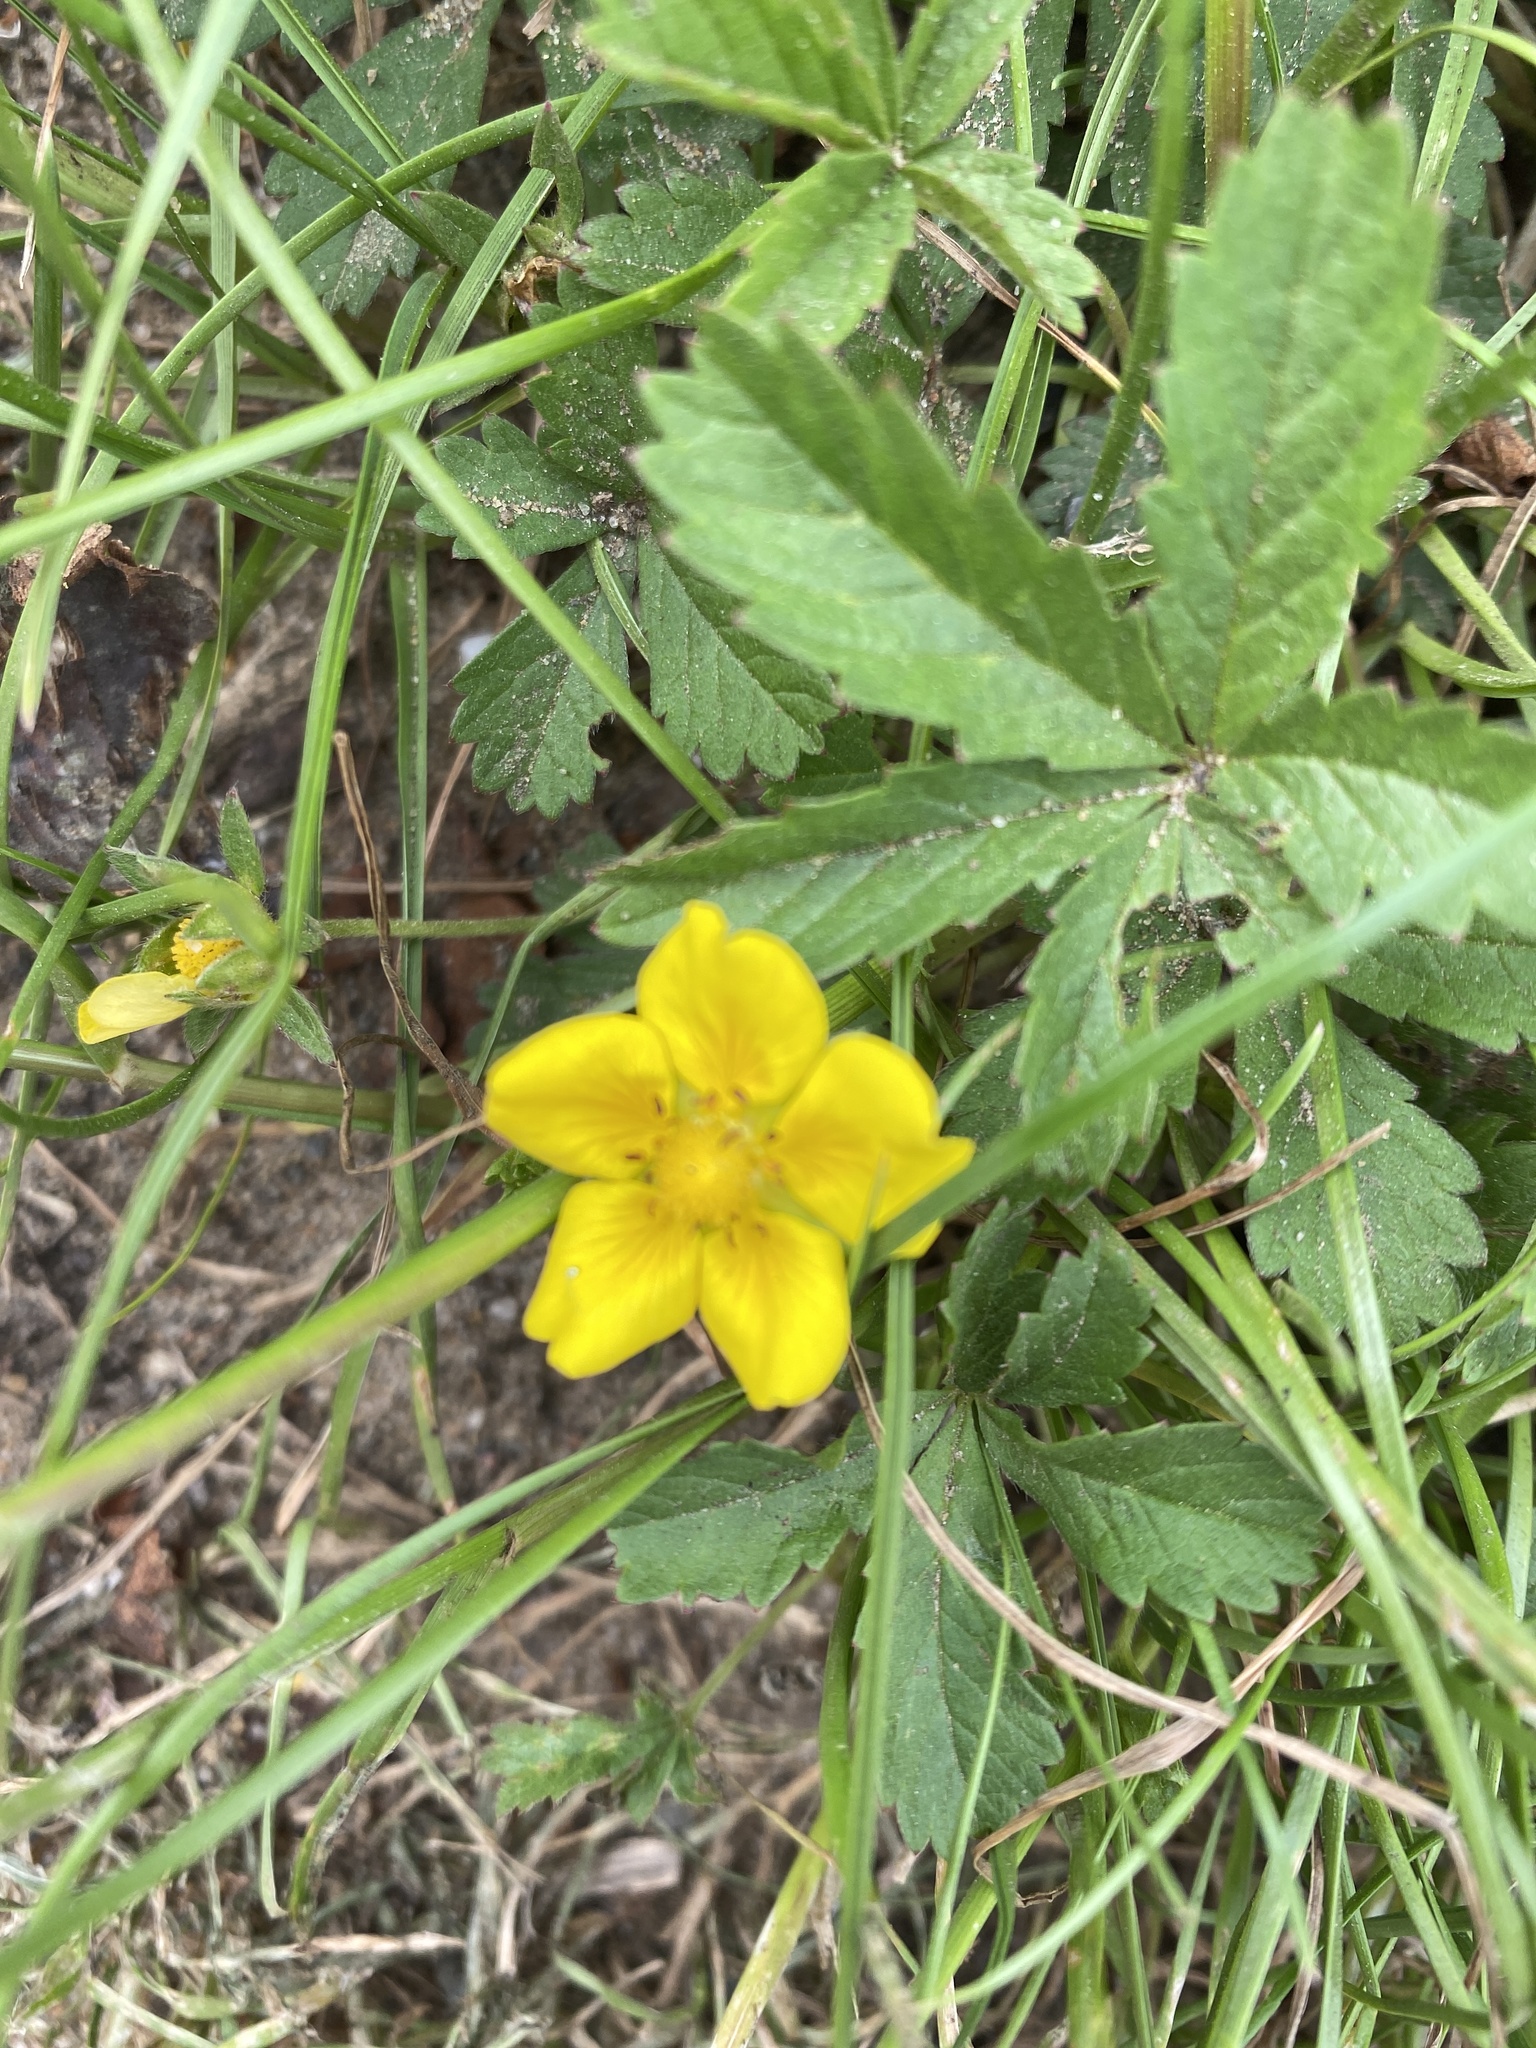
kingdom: Plantae
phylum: Tracheophyta
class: Magnoliopsida
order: Rosales
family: Rosaceae
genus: Potentilla
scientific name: Potentilla reptans
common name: Creeping cinquefoil
